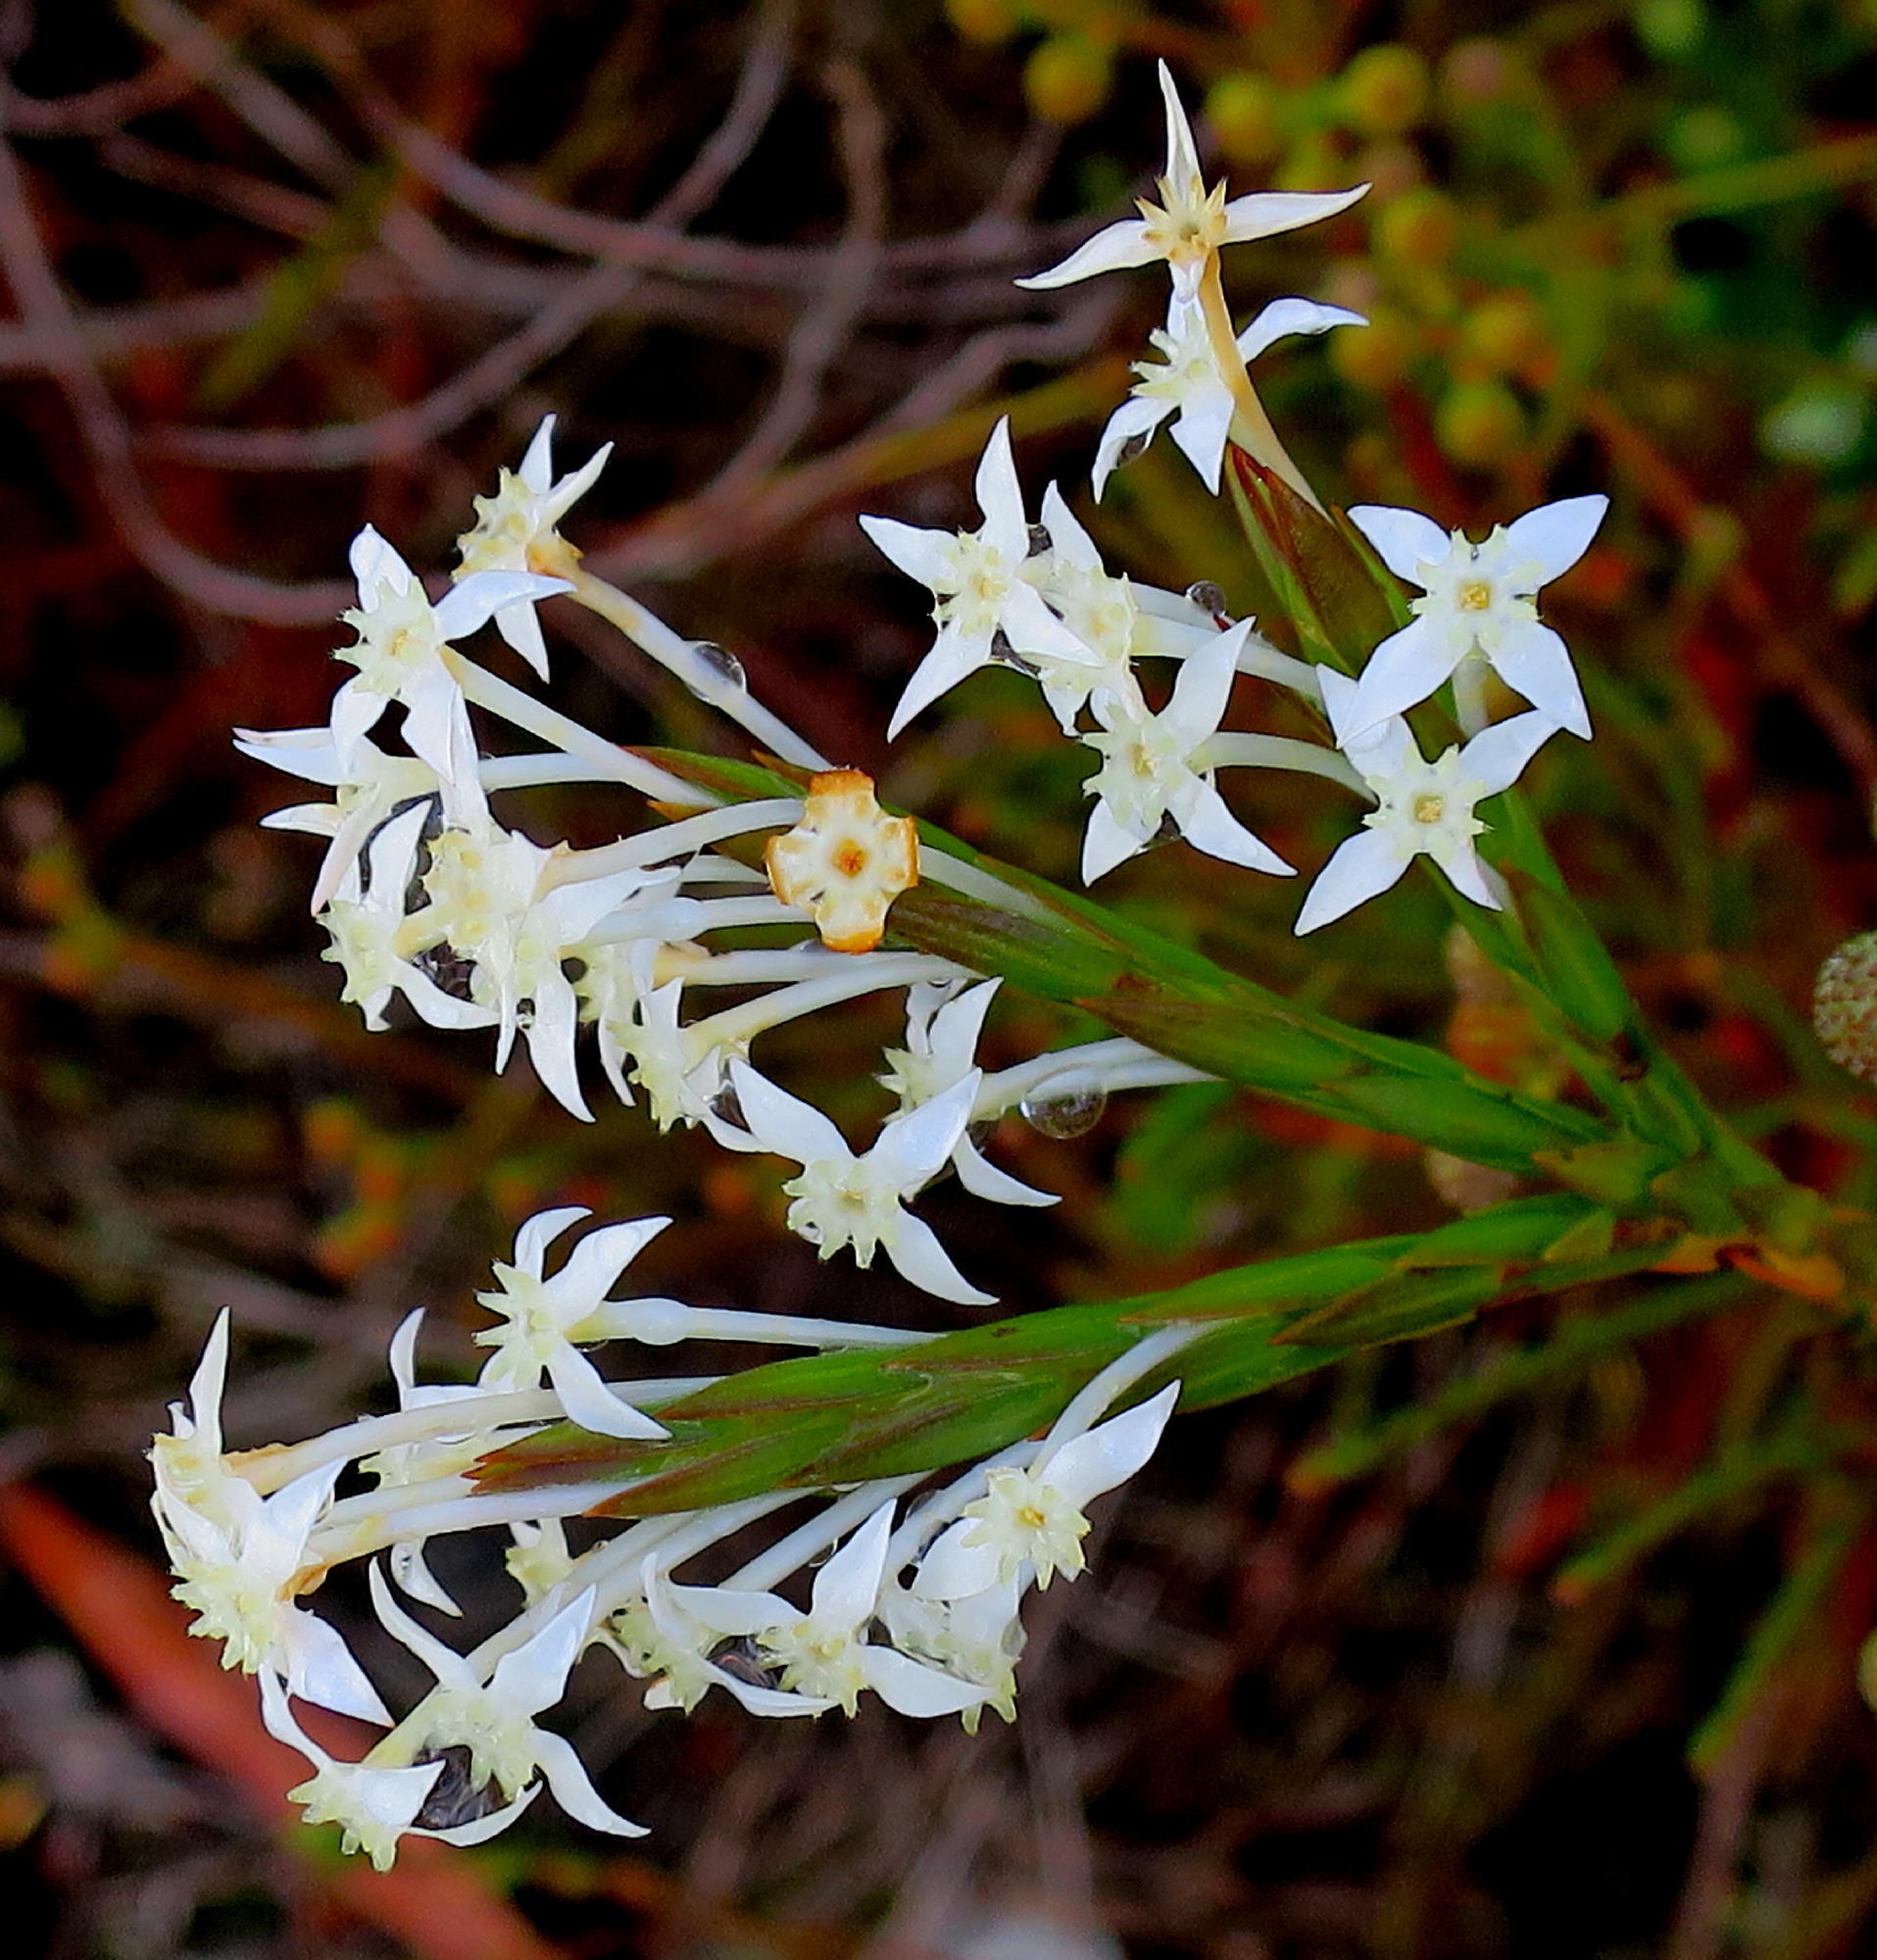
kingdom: Plantae
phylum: Tracheophyta
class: Magnoliopsida
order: Malvales
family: Thymelaeaceae
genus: Struthiola
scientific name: Struthiola myrsinites
